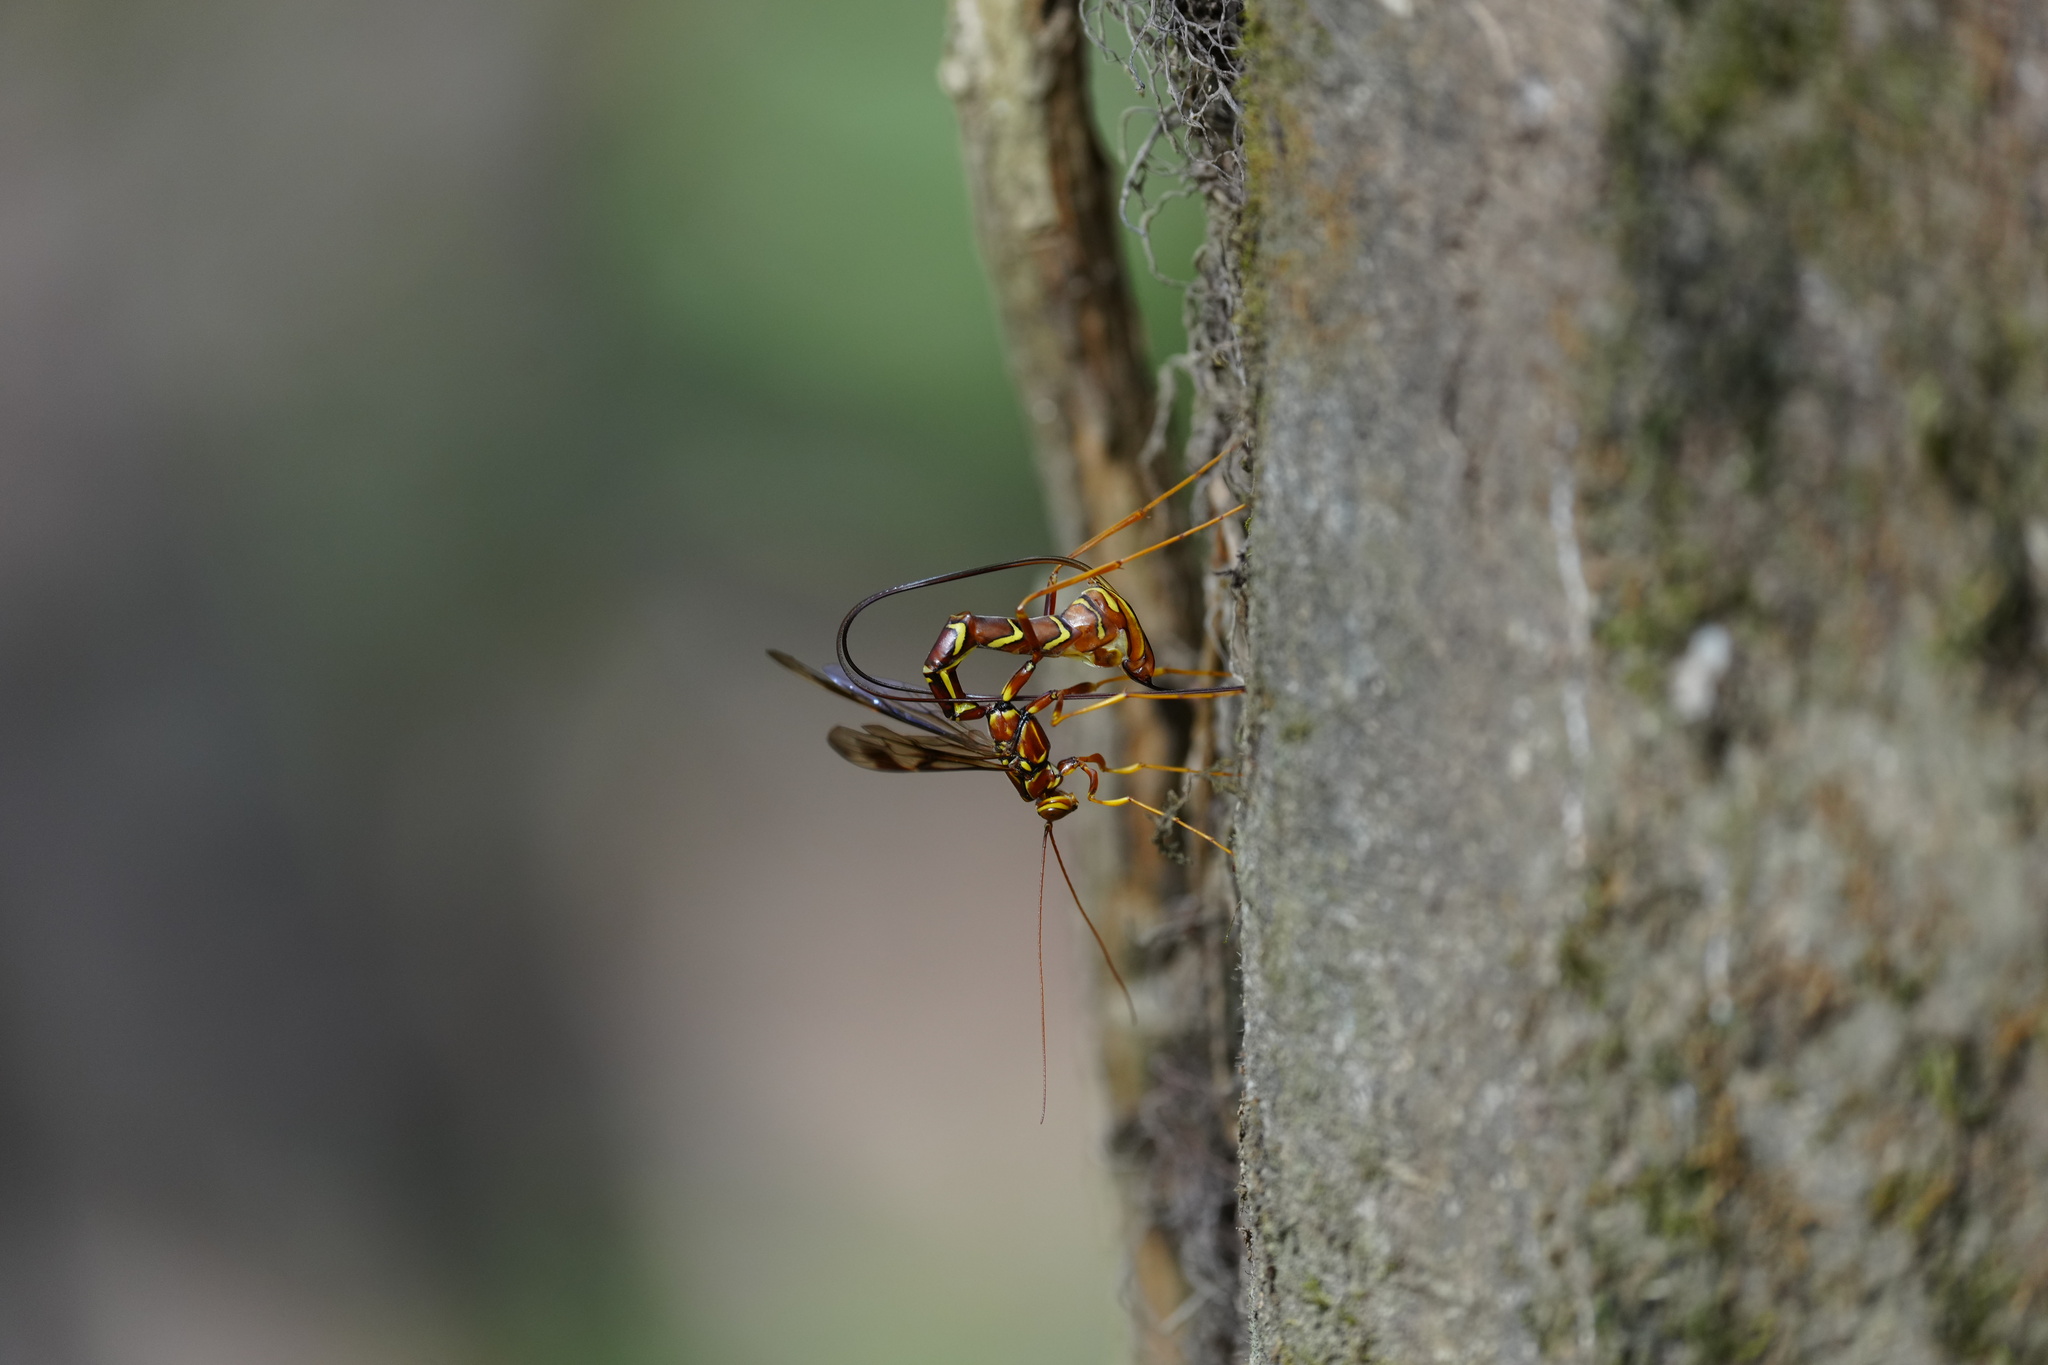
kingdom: Animalia
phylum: Arthropoda
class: Insecta
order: Hymenoptera
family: Ichneumonidae
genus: Megarhyssa
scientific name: Megarhyssa macrura
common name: Long-tailed giant ichneumonid wasp
